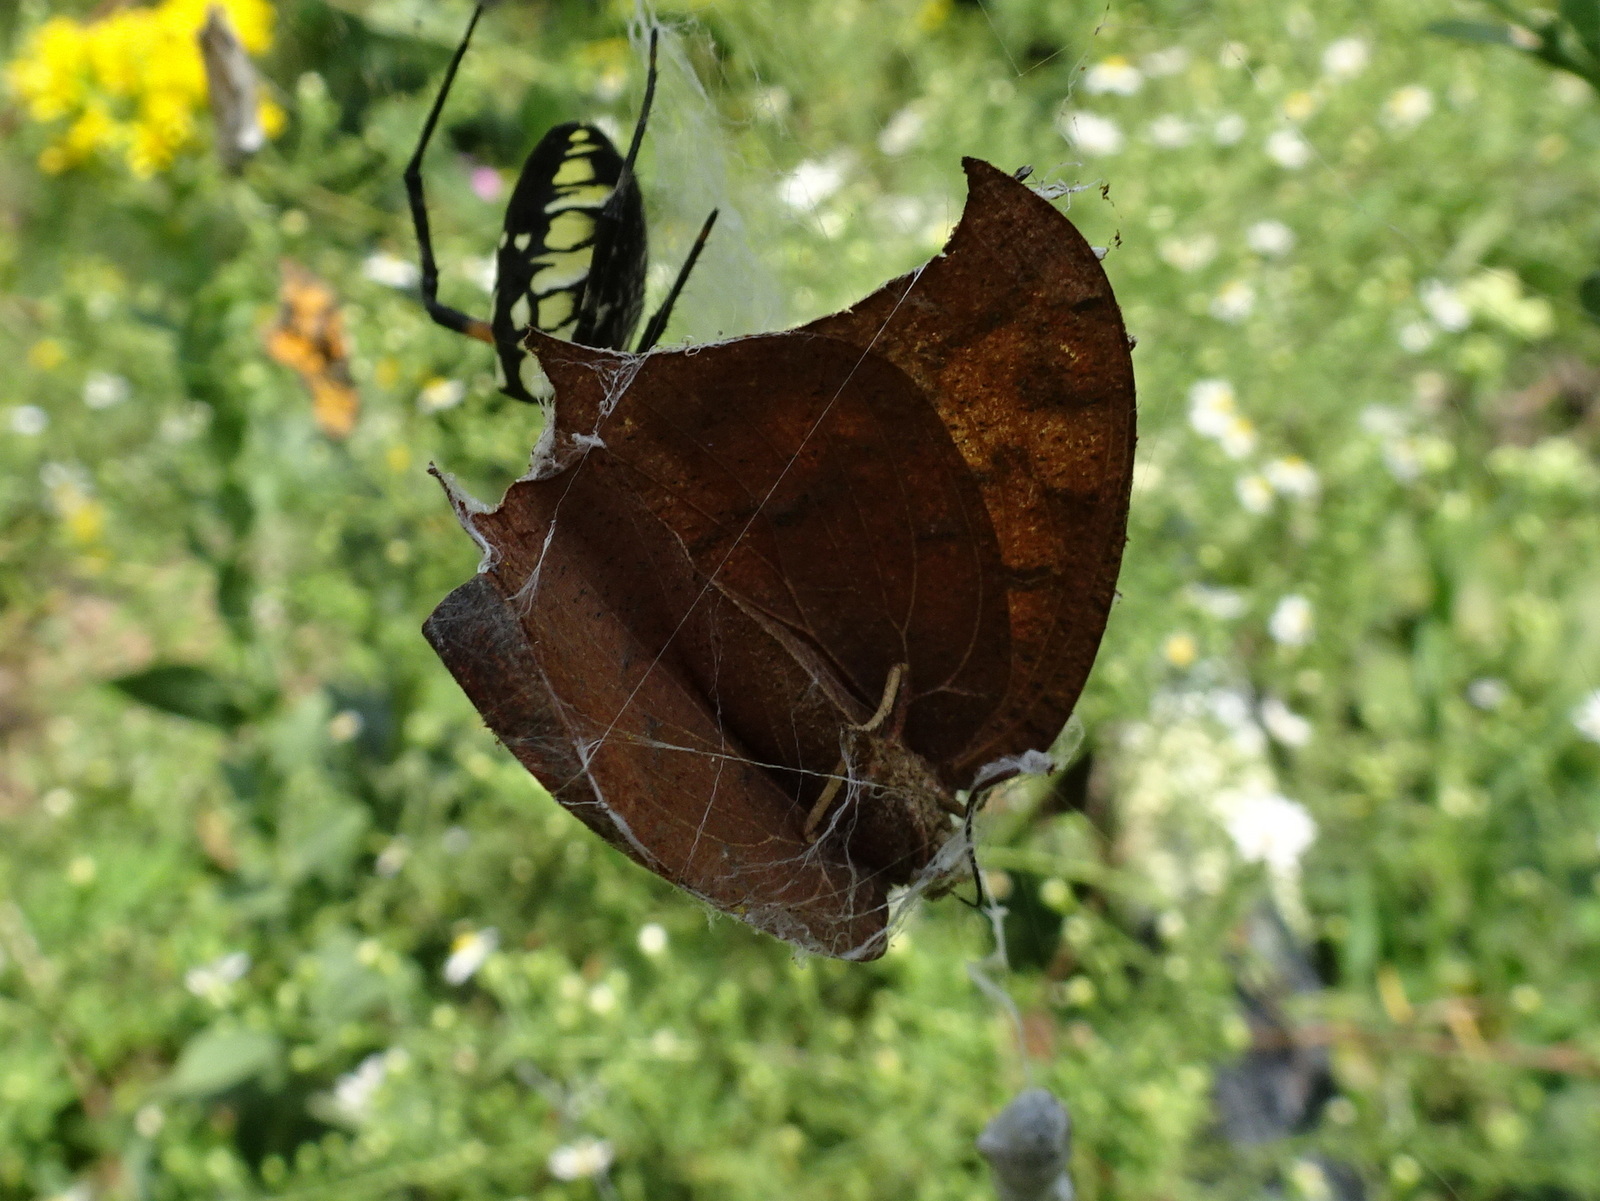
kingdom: Animalia
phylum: Arthropoda
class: Insecta
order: Lepidoptera
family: Nymphalidae
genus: Anaea
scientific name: Anaea andria
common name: Goatweed leafwing
